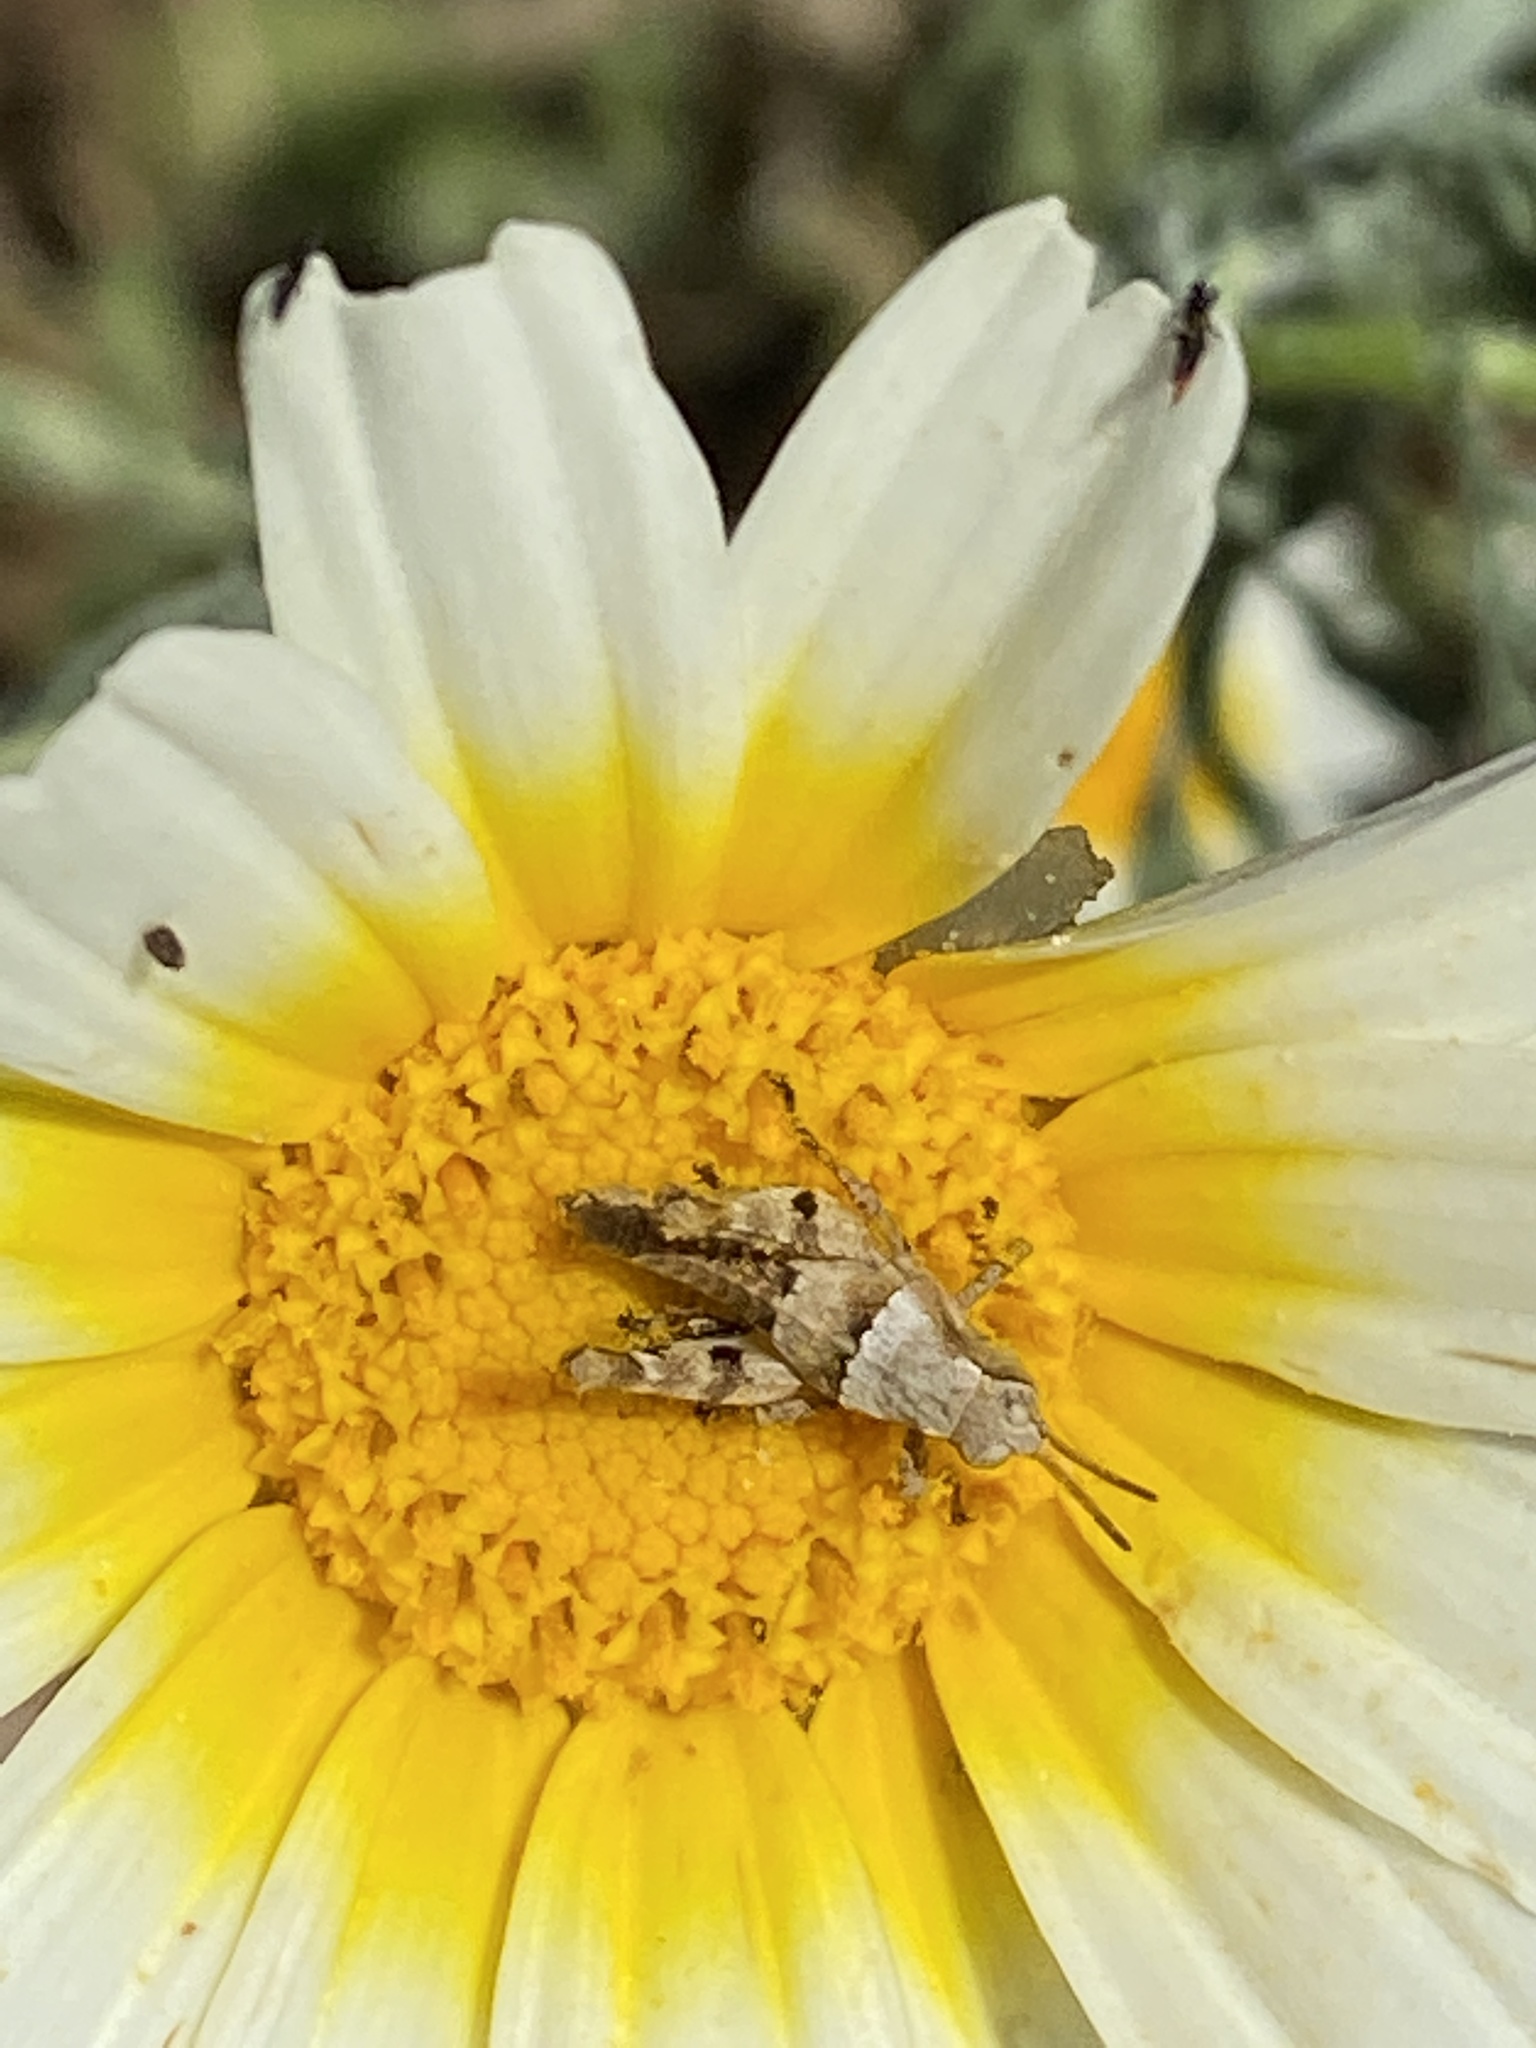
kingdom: Animalia
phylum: Arthropoda
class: Insecta
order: Orthoptera
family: Acrididae
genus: Arminda
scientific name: Arminda fuerteventurae
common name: Fuerteventura rock grasshopper
